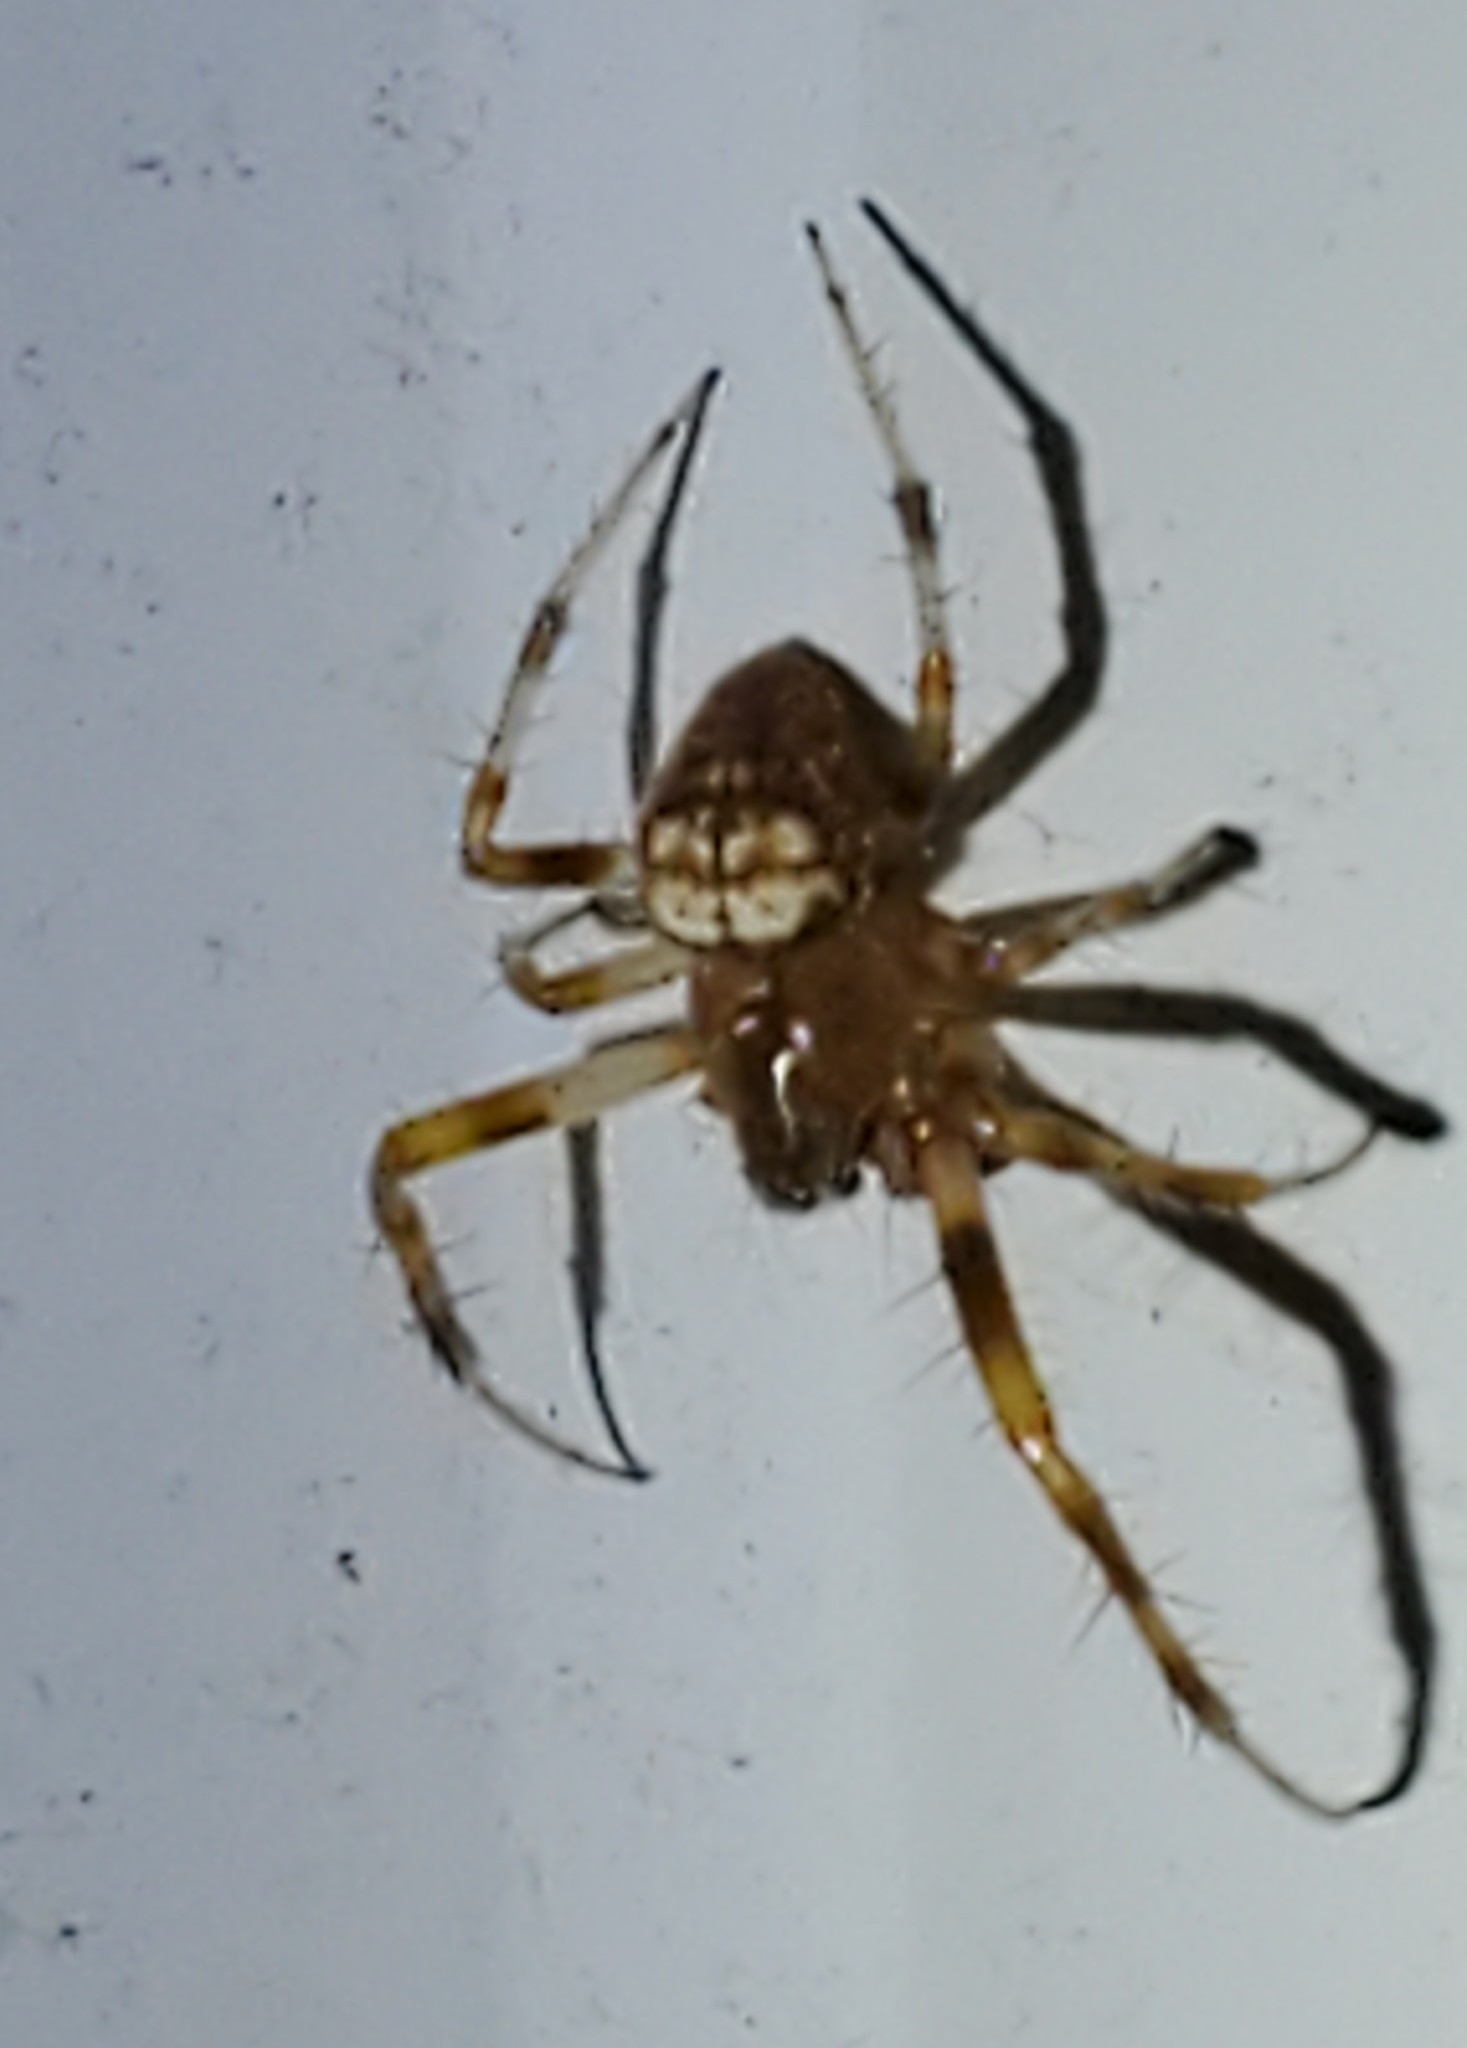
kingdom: Animalia
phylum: Arthropoda
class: Arachnida
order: Araneae
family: Araneidae
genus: Araneus
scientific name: Araneus pegnia
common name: Orb weavers
